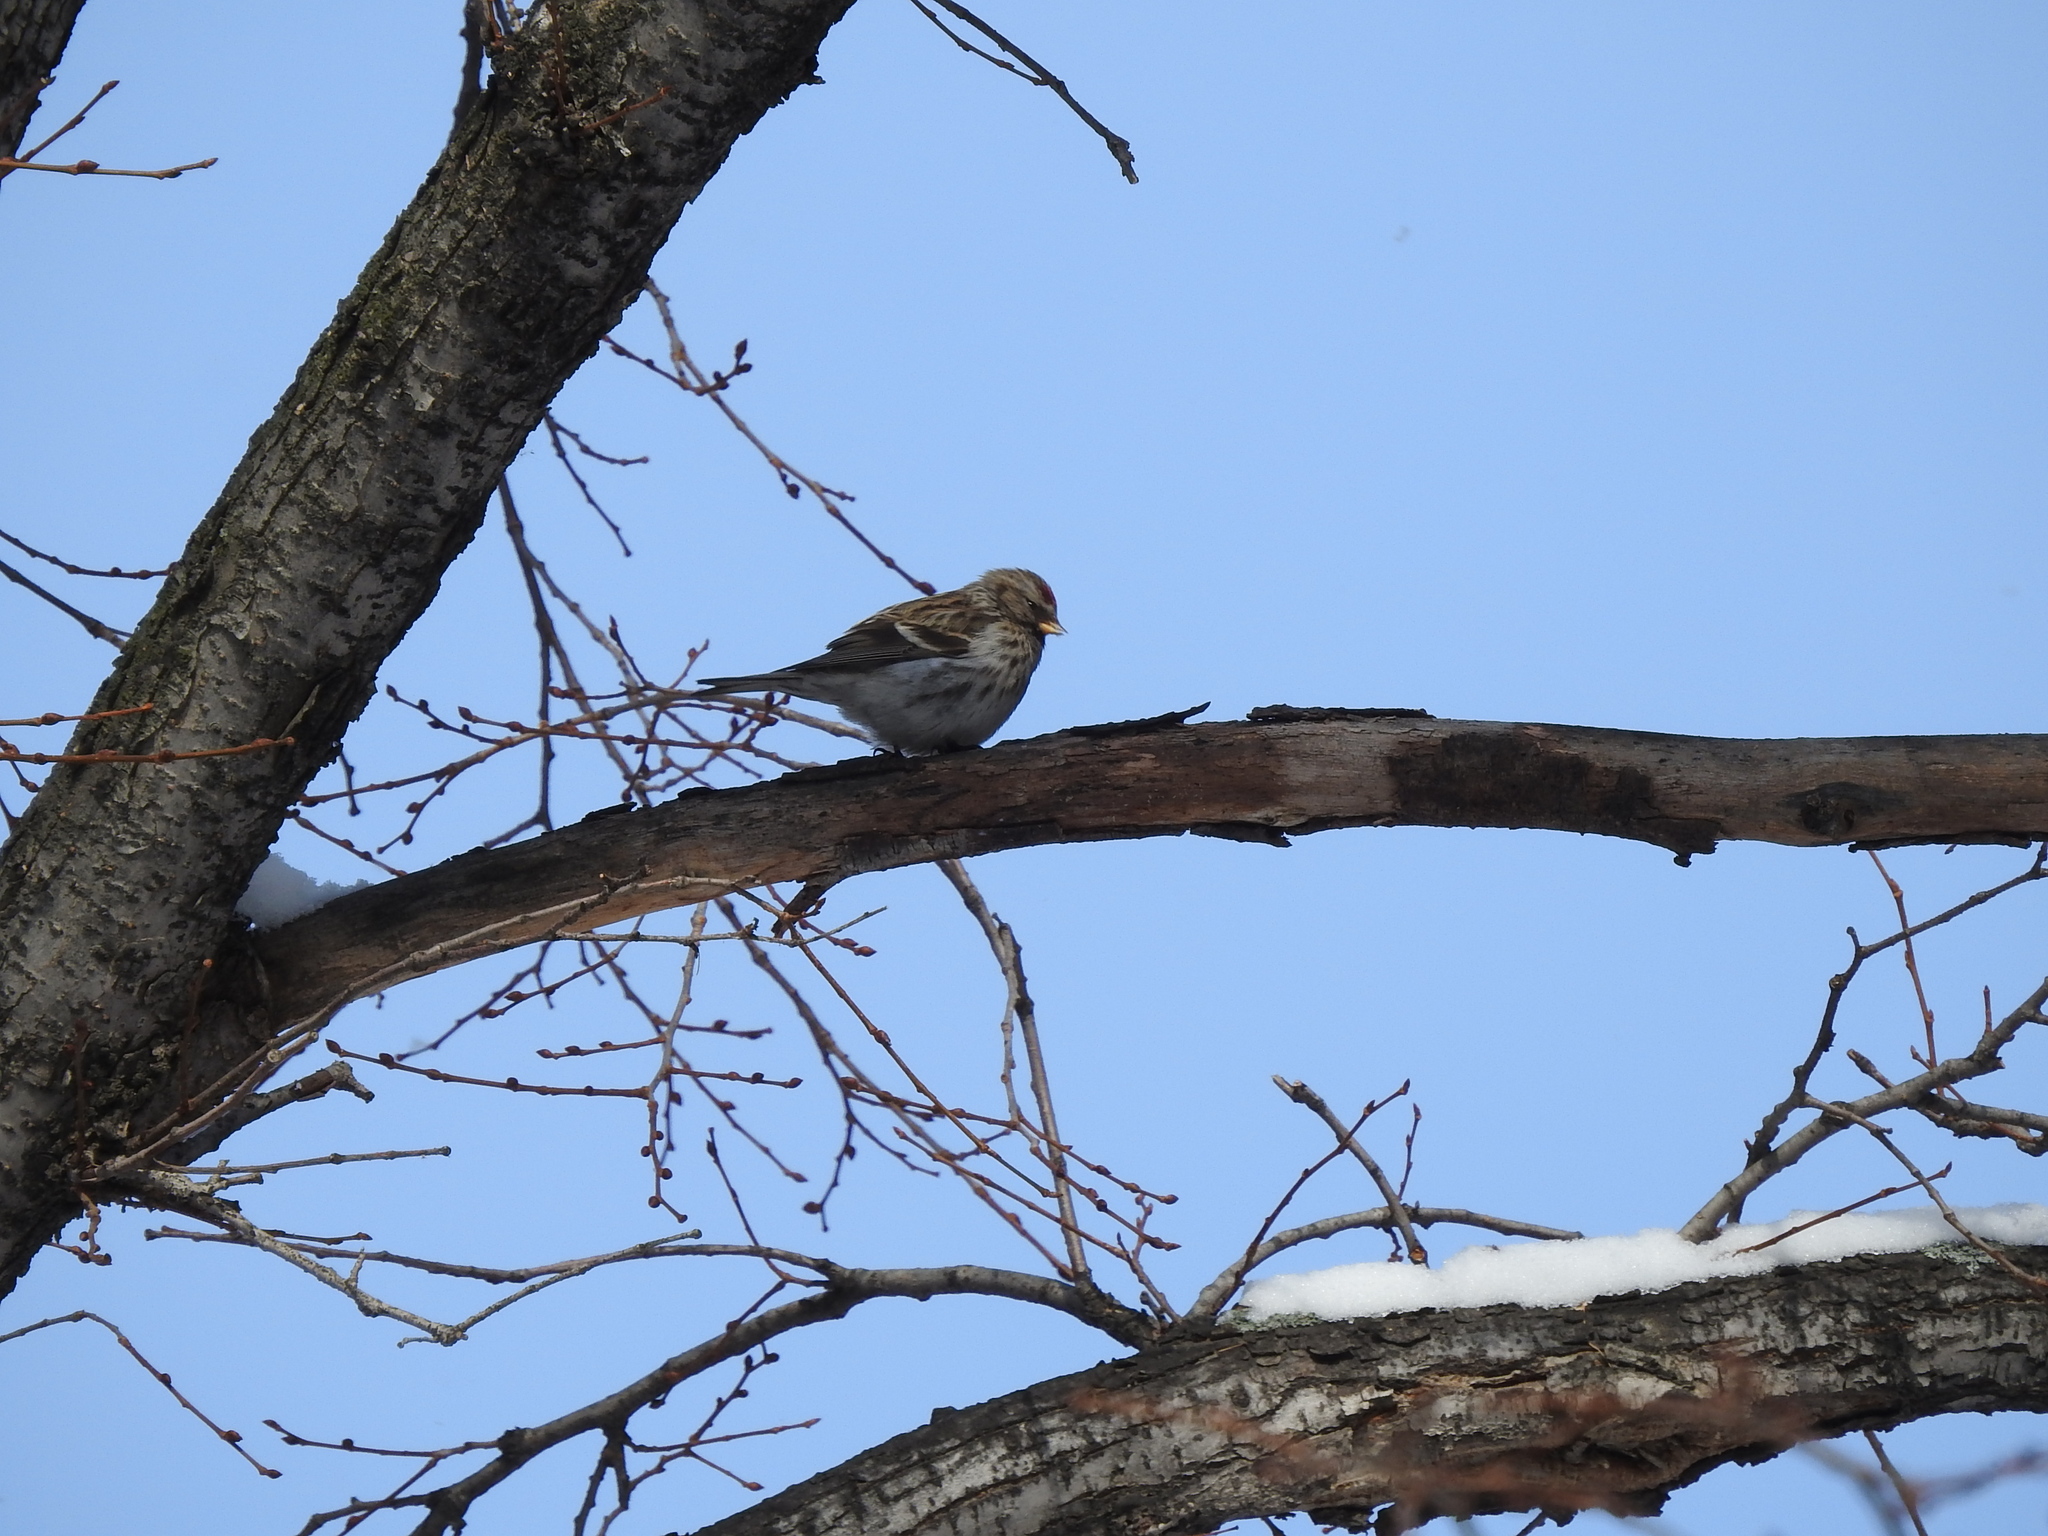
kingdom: Animalia
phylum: Chordata
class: Aves
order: Passeriformes
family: Fringillidae
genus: Acanthis
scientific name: Acanthis flammea
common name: Common redpoll
